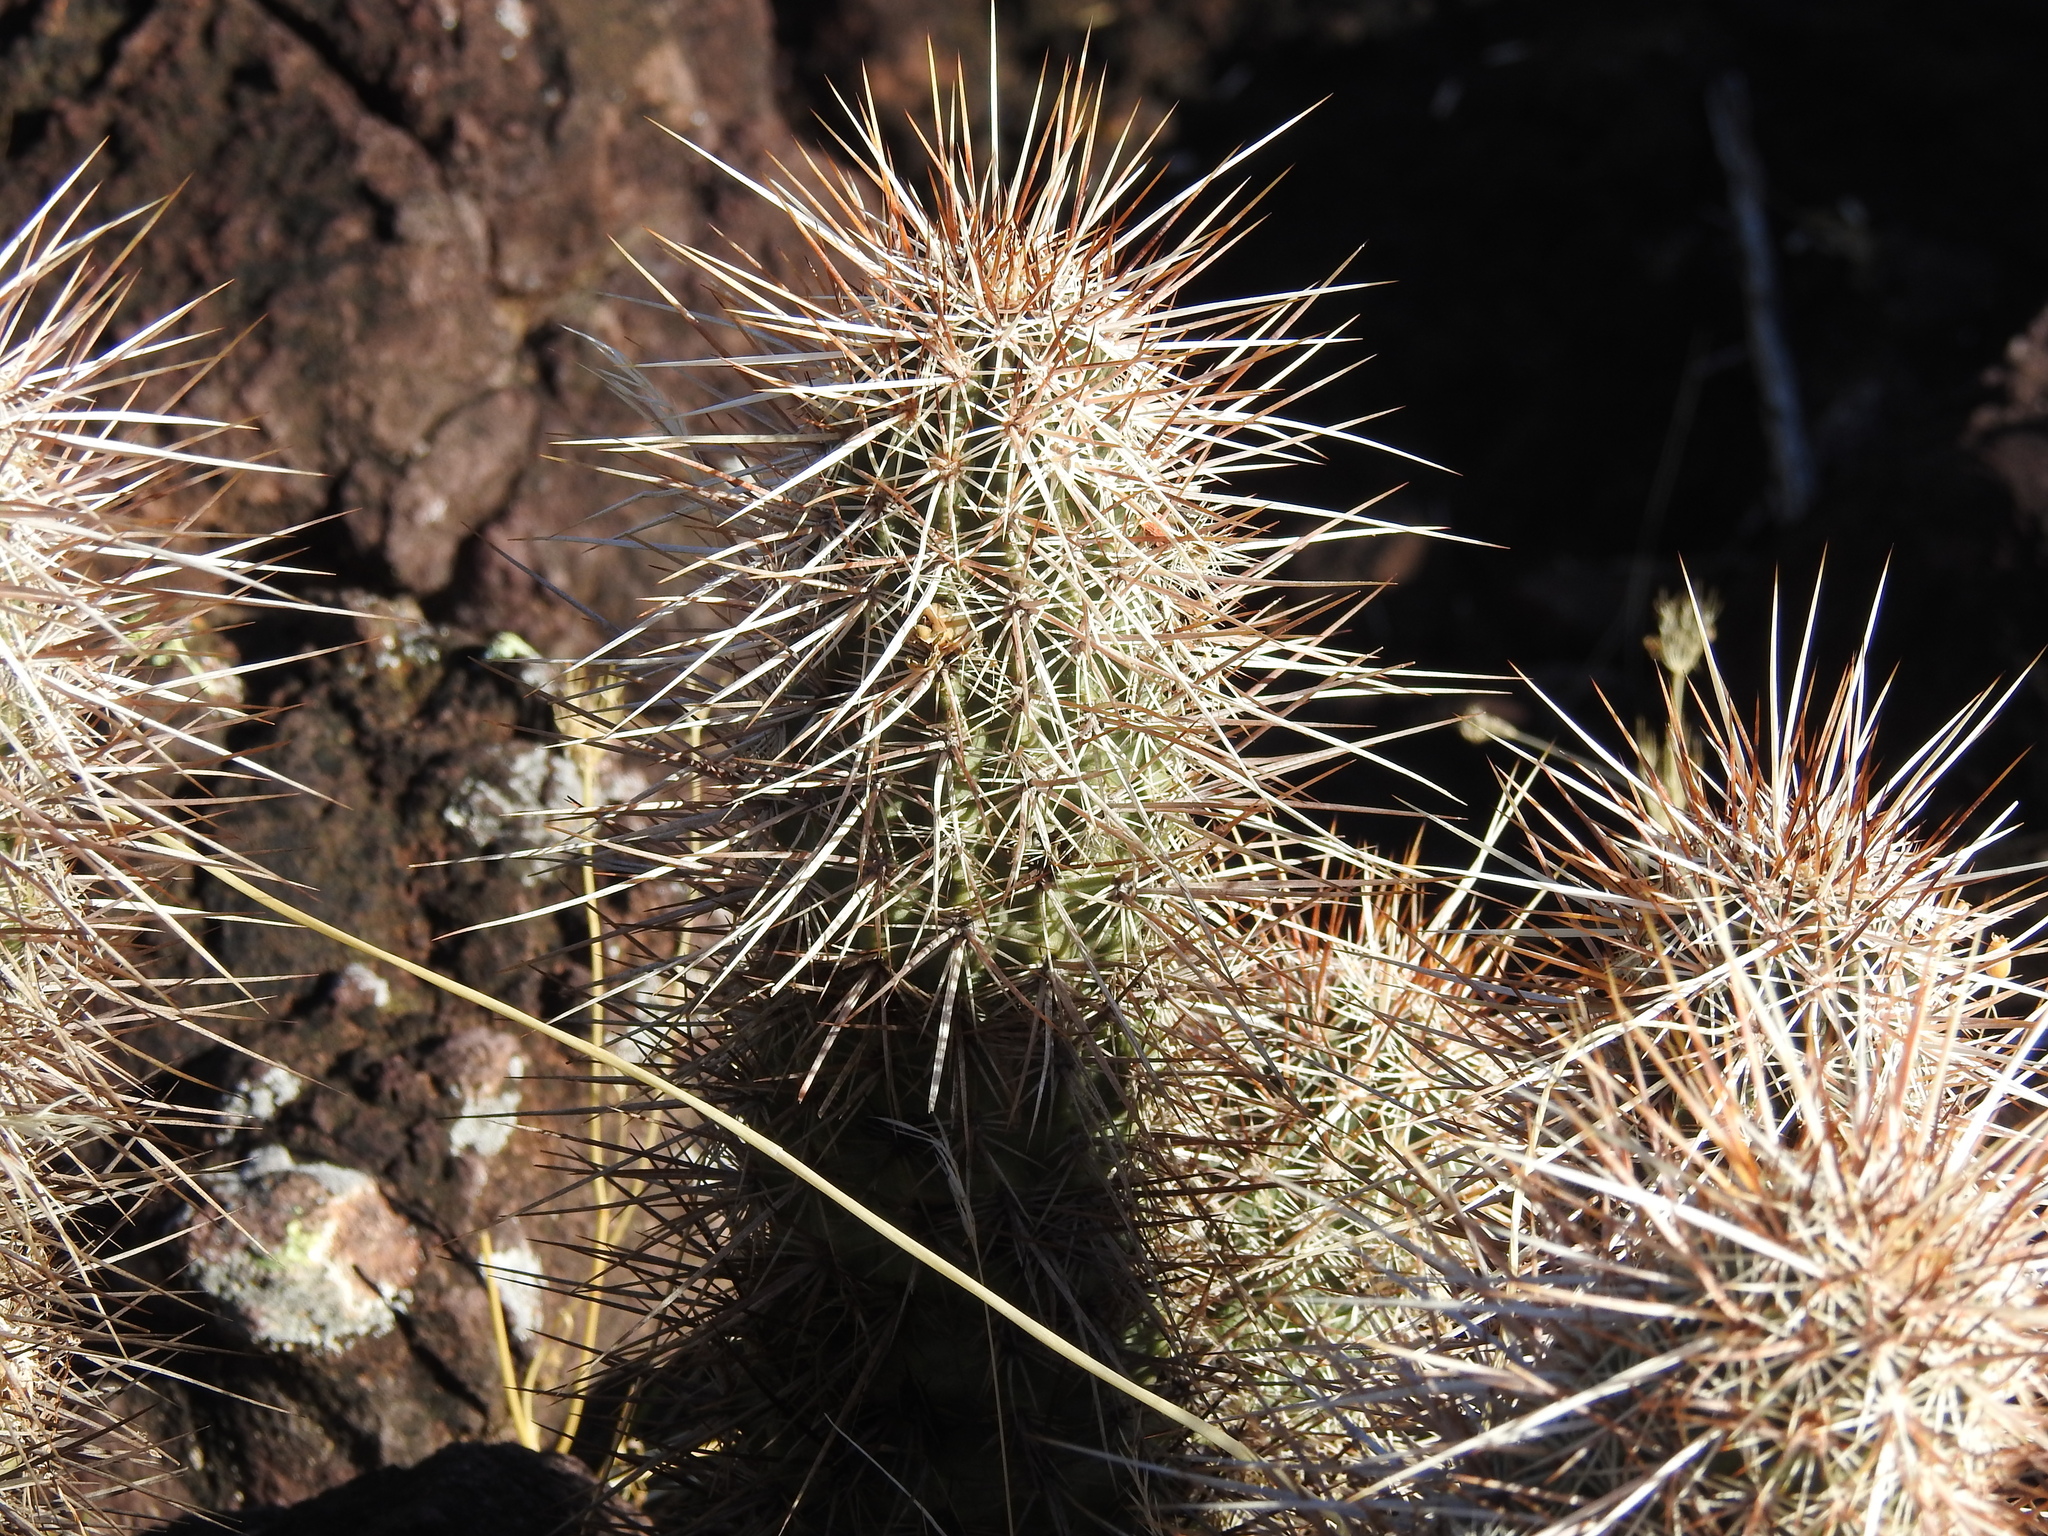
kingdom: Plantae
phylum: Tracheophyta
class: Magnoliopsida
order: Caryophyllales
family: Cactaceae
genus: Echinocereus
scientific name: Echinocereus engelmannii
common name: Engelmann's hedgehog cactus
